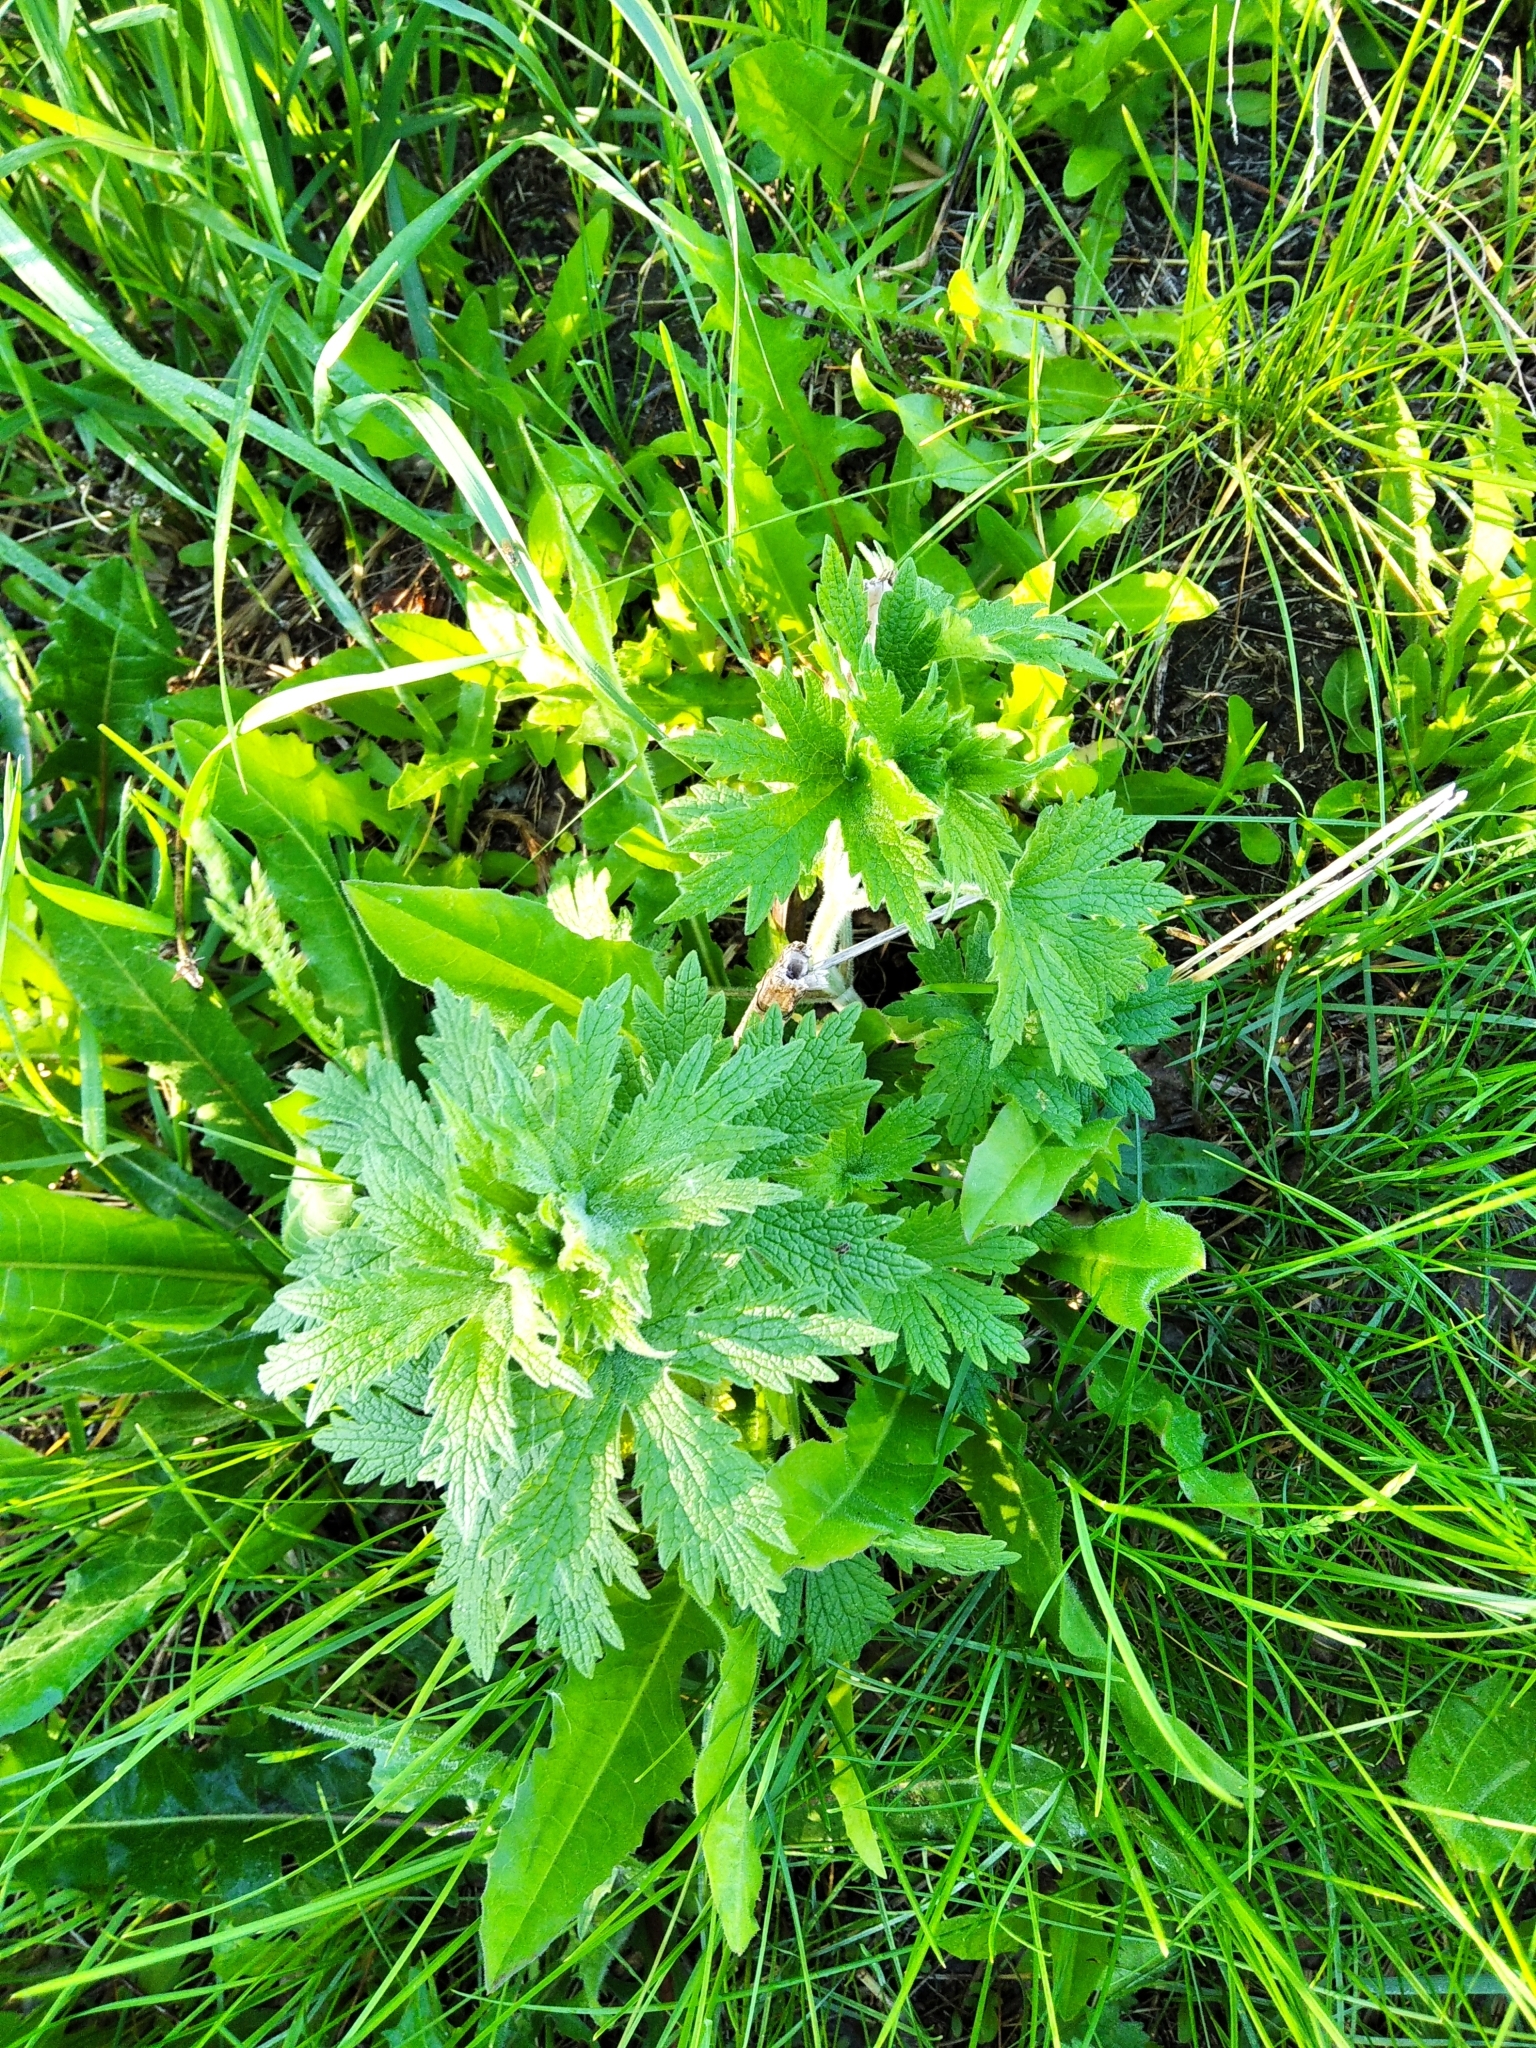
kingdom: Plantae
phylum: Tracheophyta
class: Magnoliopsida
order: Lamiales
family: Lamiaceae
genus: Leonurus
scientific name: Leonurus quinquelobatus
